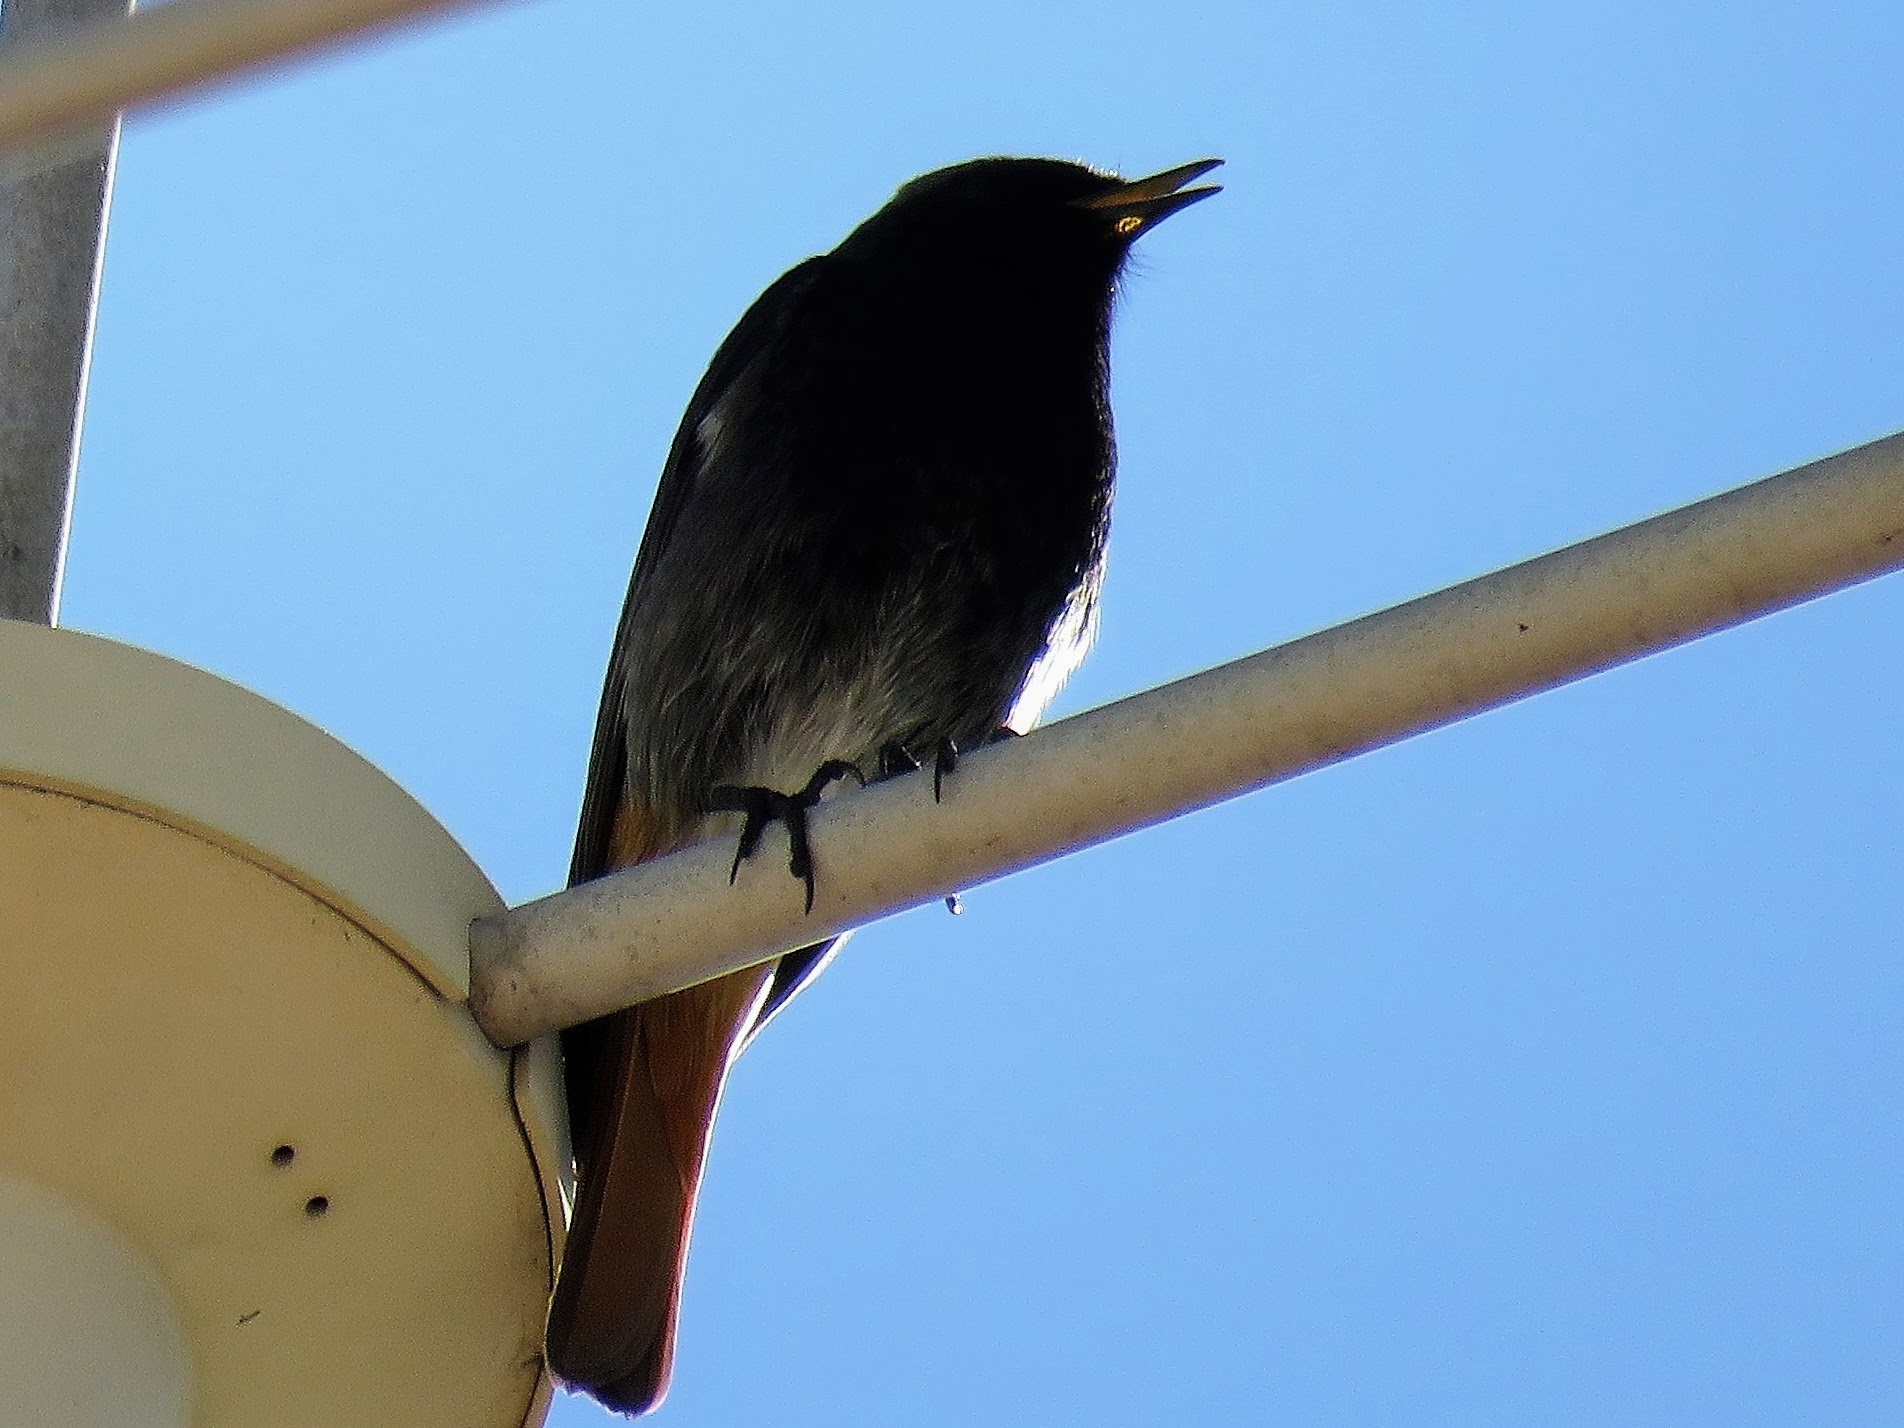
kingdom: Animalia
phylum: Chordata
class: Aves
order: Passeriformes
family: Muscicapidae
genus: Phoenicurus
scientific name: Phoenicurus ochruros
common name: Black redstart
